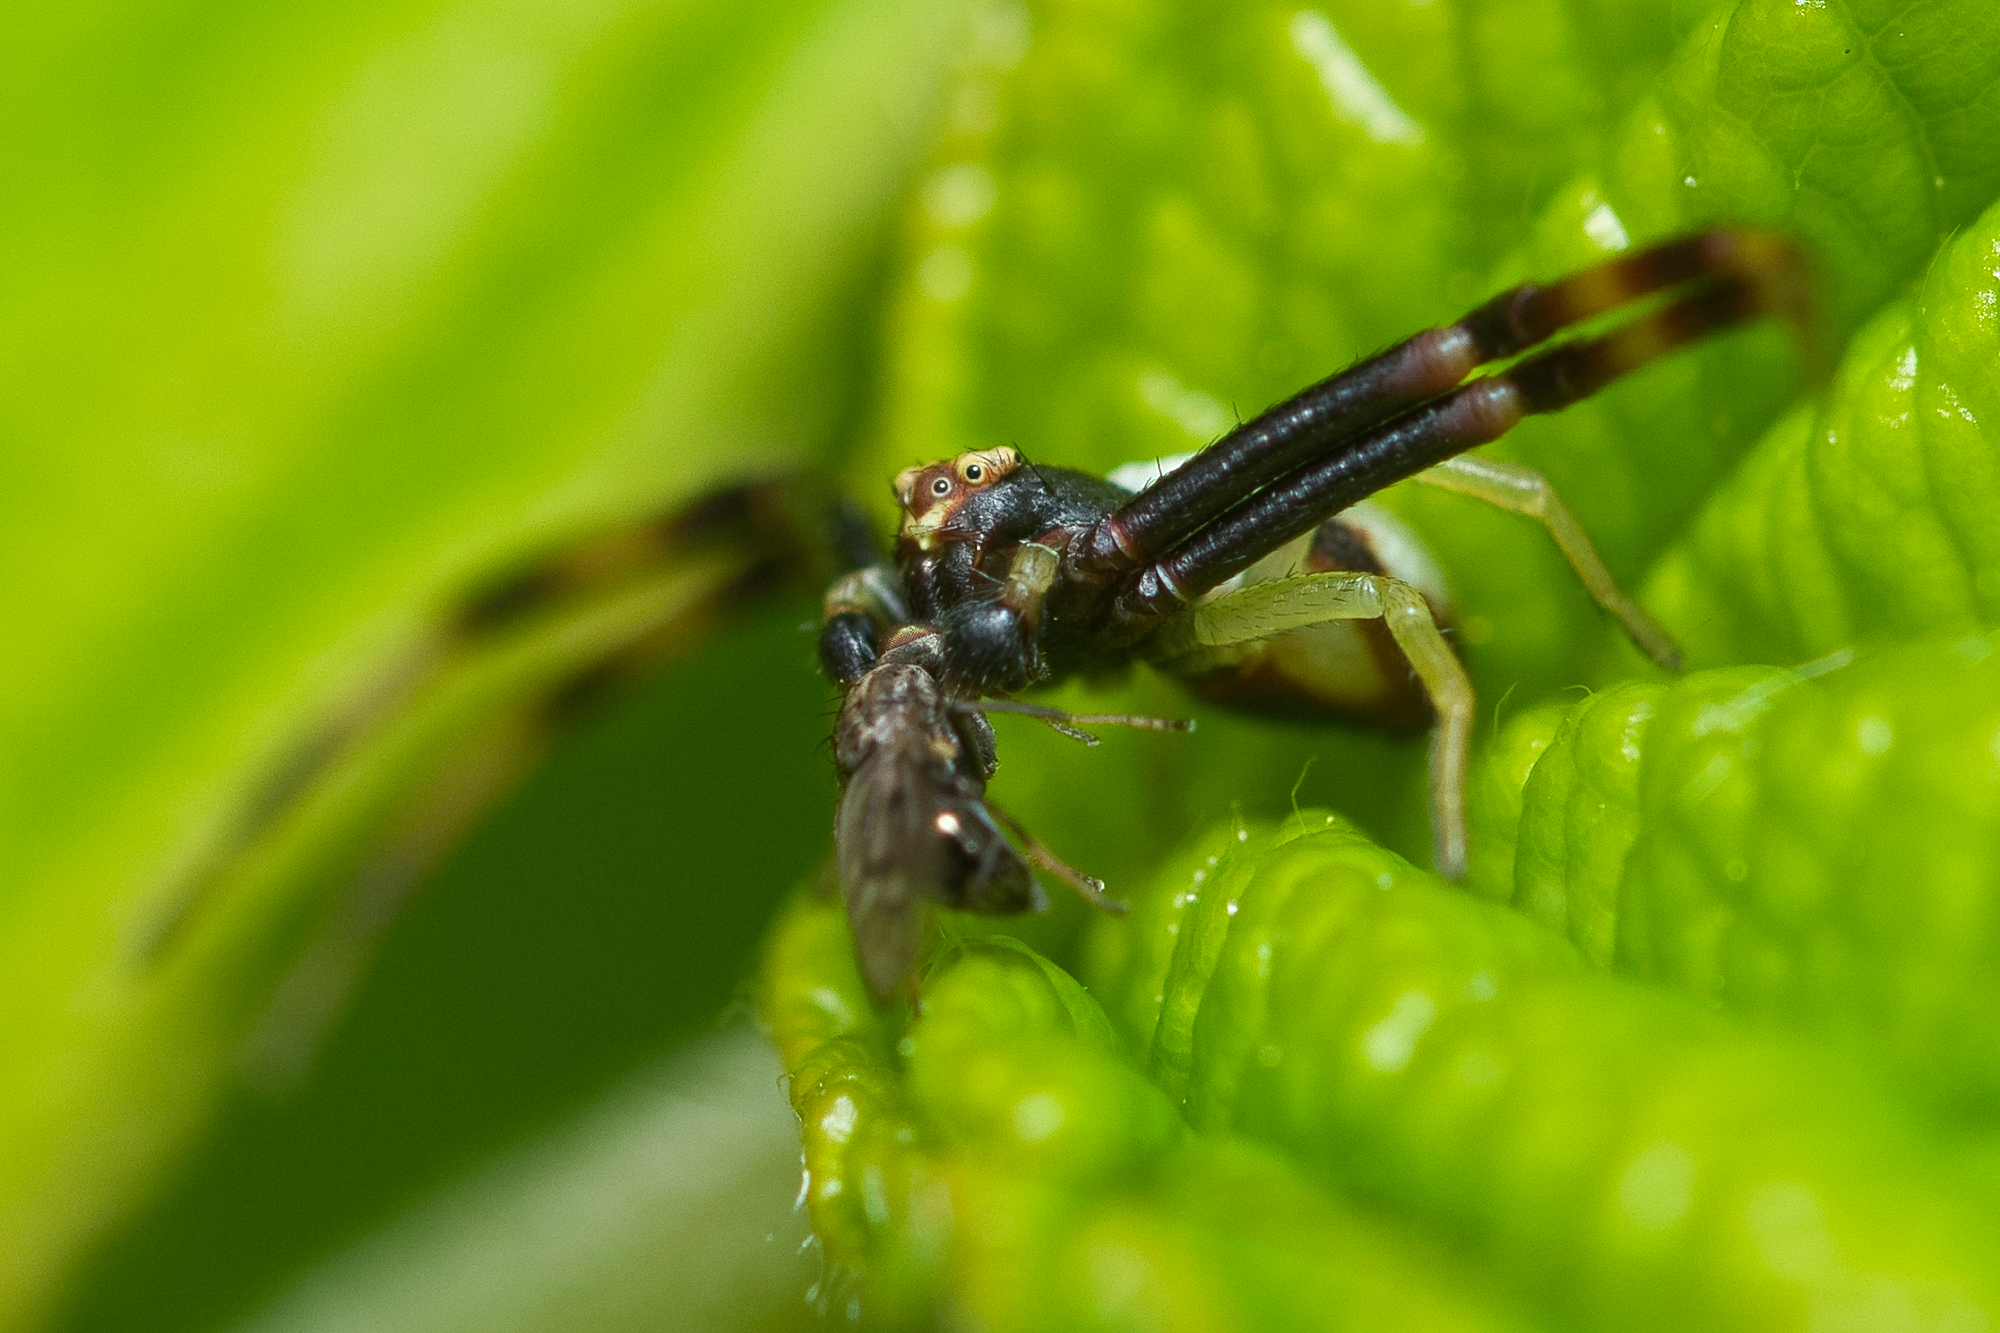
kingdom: Animalia
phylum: Arthropoda
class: Arachnida
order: Araneae
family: Thomisidae
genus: Misumena
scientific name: Misumena vatia
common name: Goldenrod crab spider
